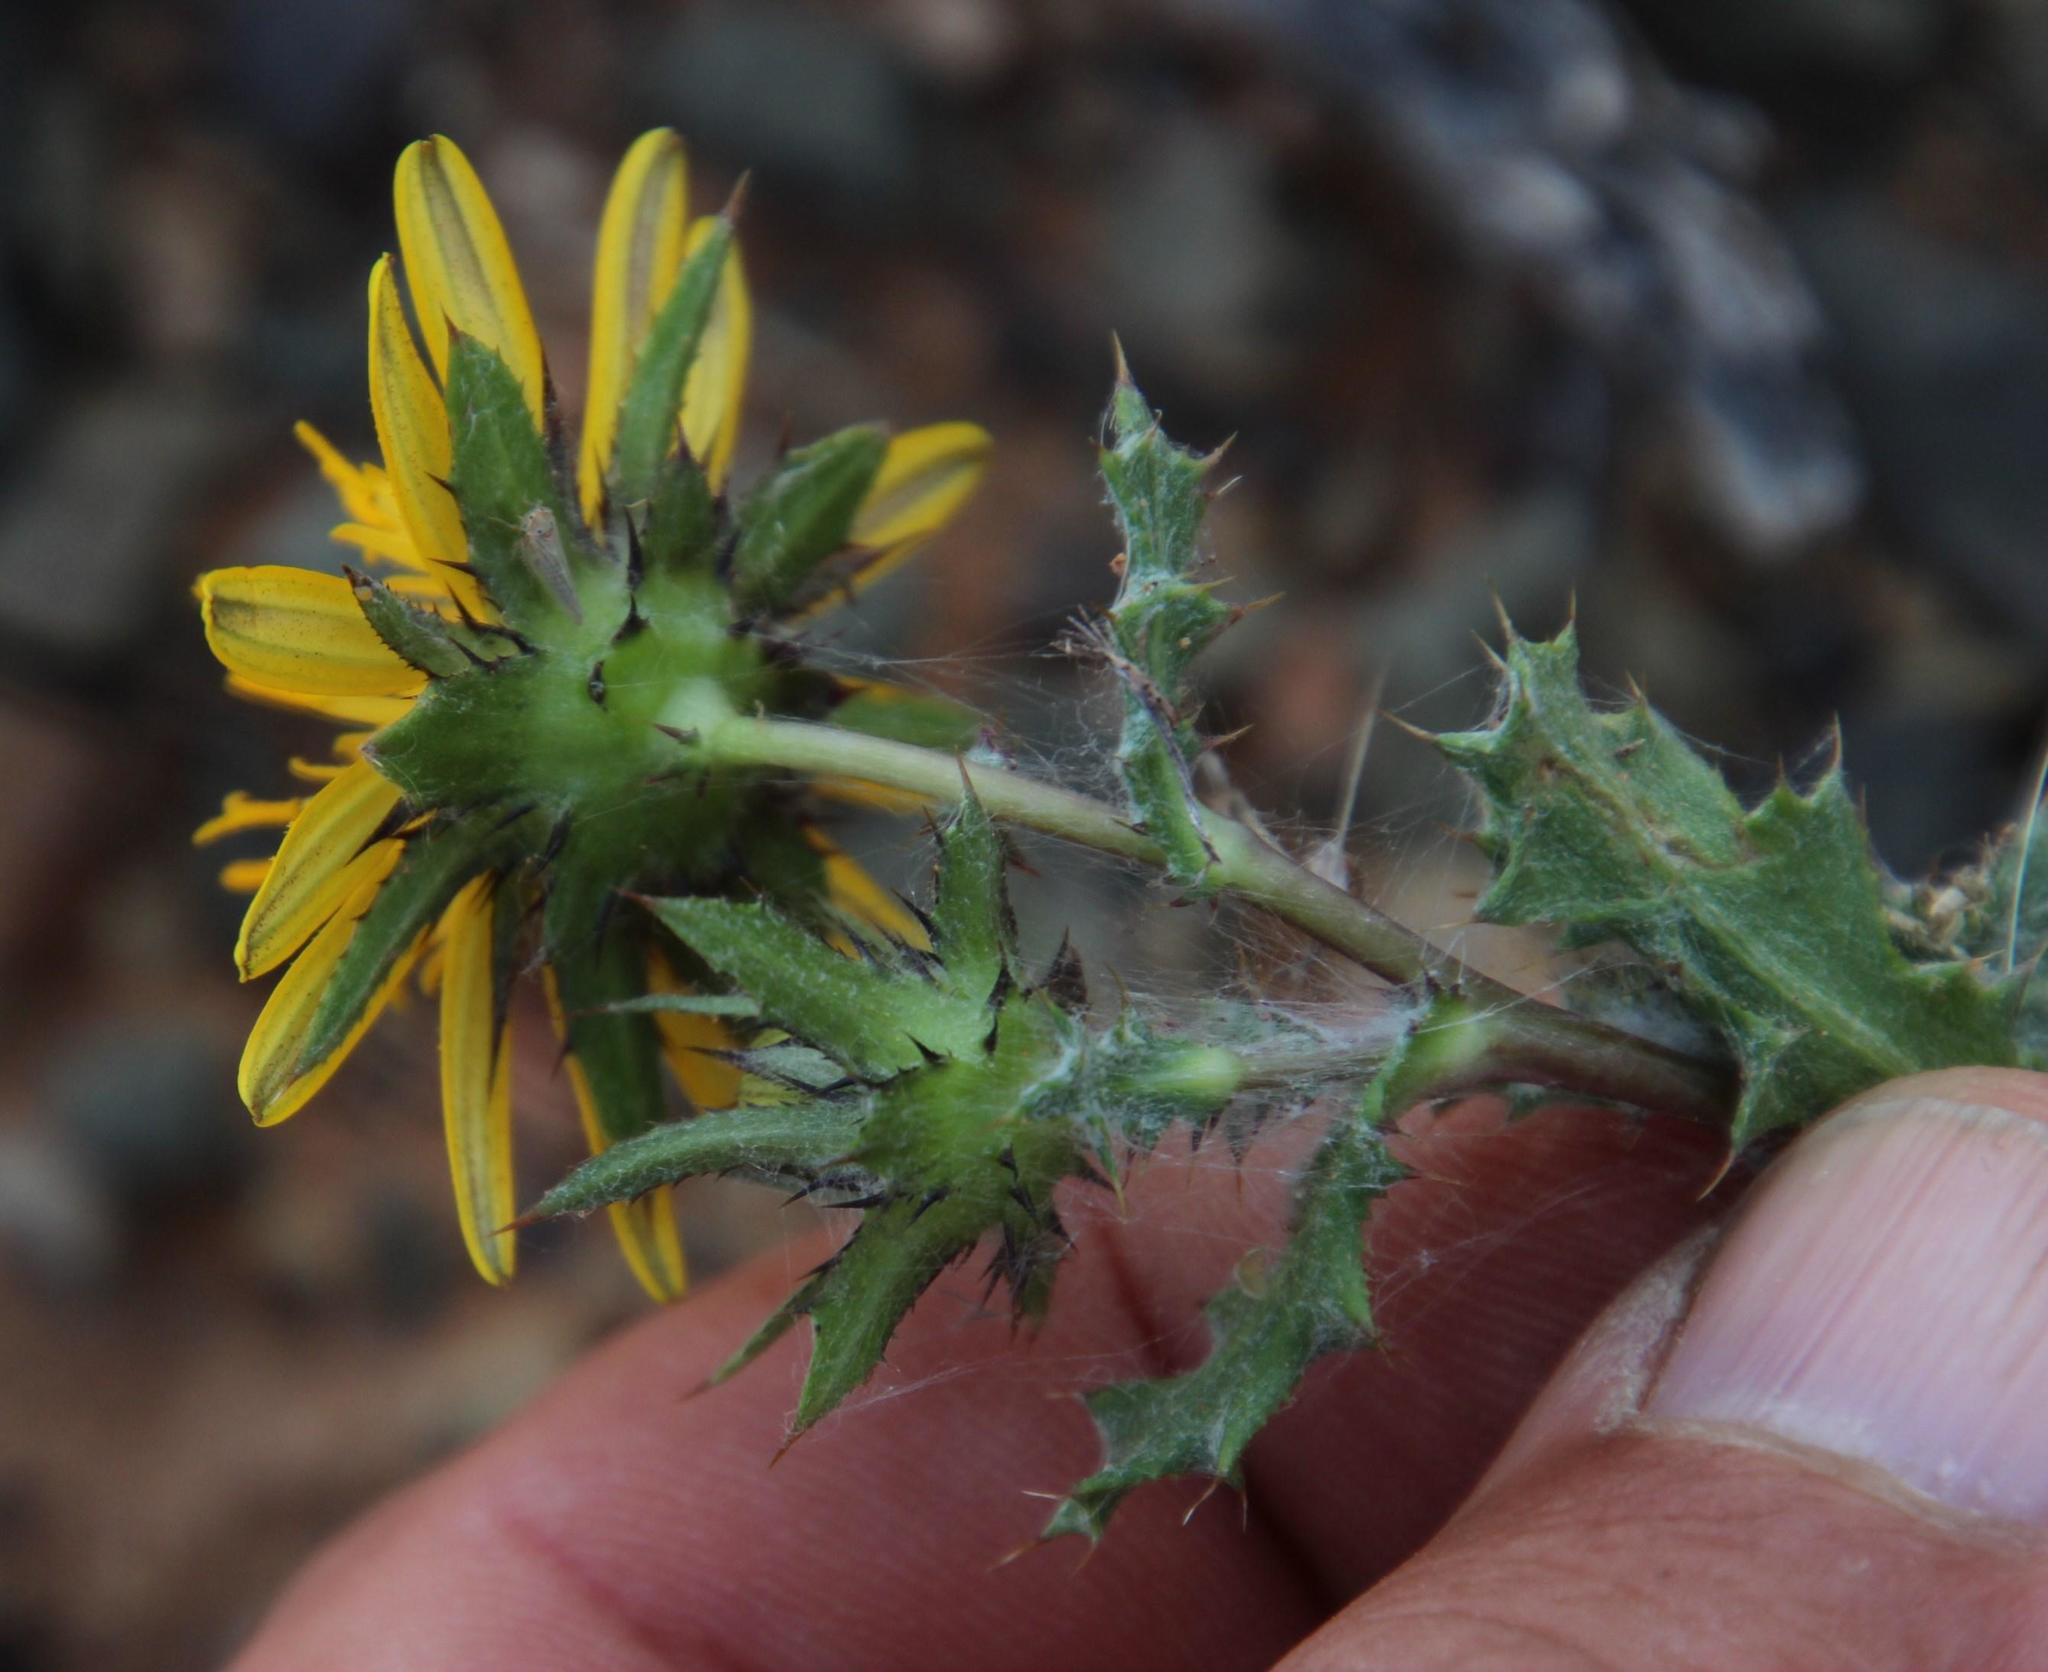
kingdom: Plantae
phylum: Tracheophyta
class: Magnoliopsida
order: Asterales
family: Asteraceae
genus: Cuspidia
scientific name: Cuspidia cernua
